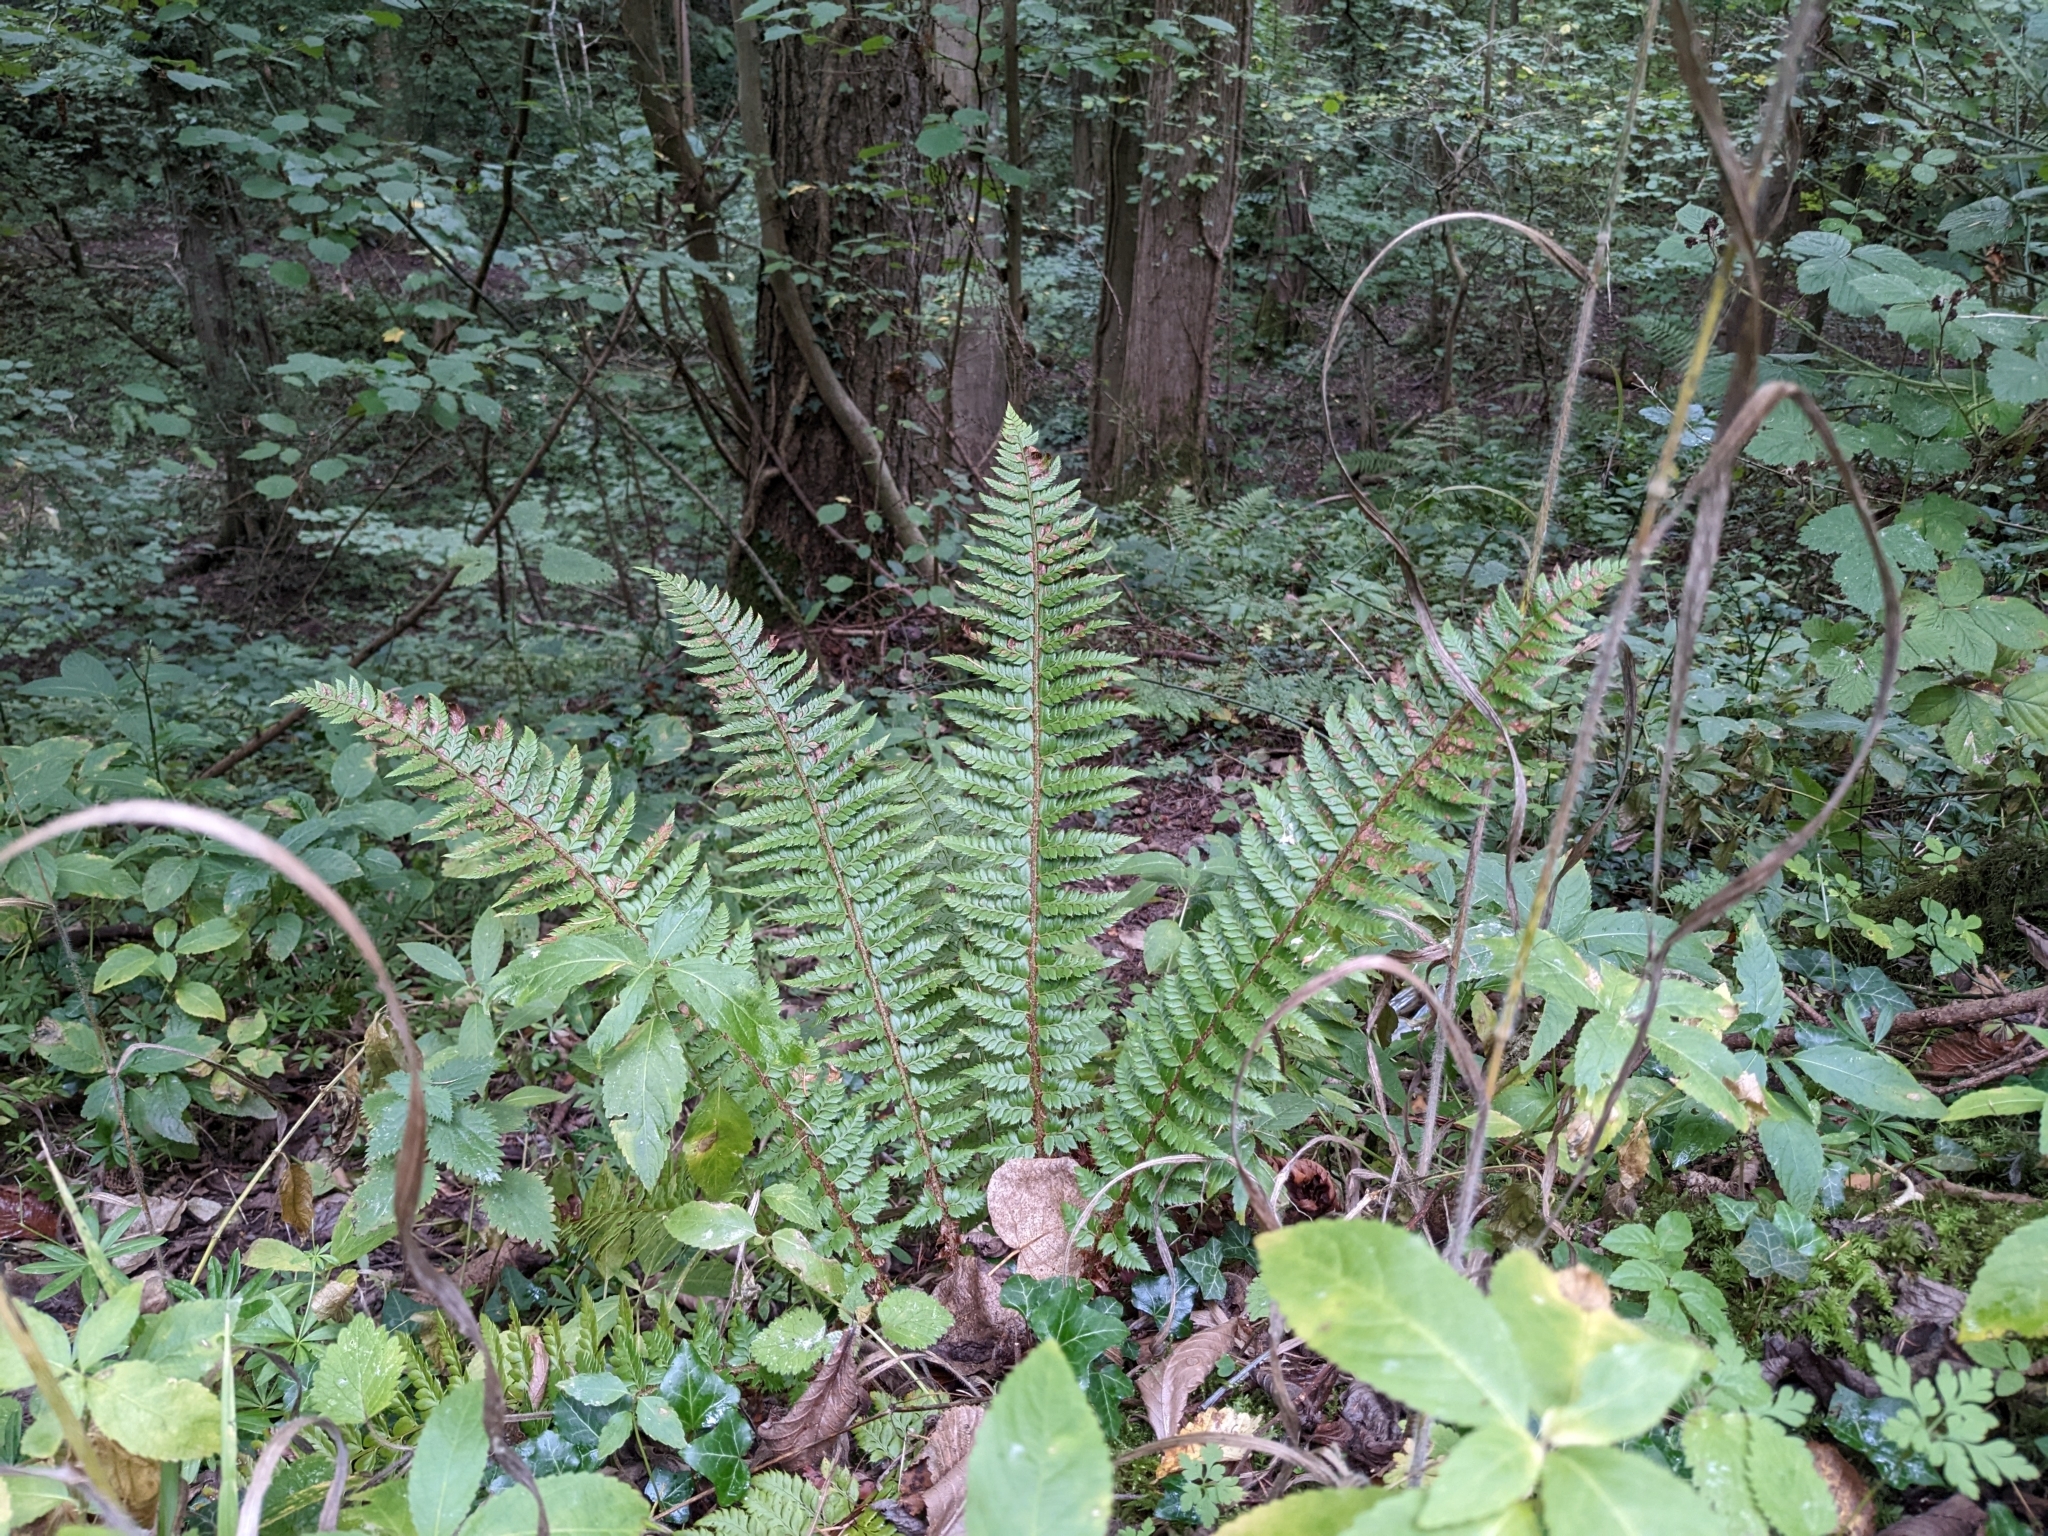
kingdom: Plantae
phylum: Tracheophyta
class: Polypodiopsida
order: Polypodiales
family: Dryopteridaceae
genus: Polystichum
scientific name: Polystichum aculeatum
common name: Hard shield-fern
